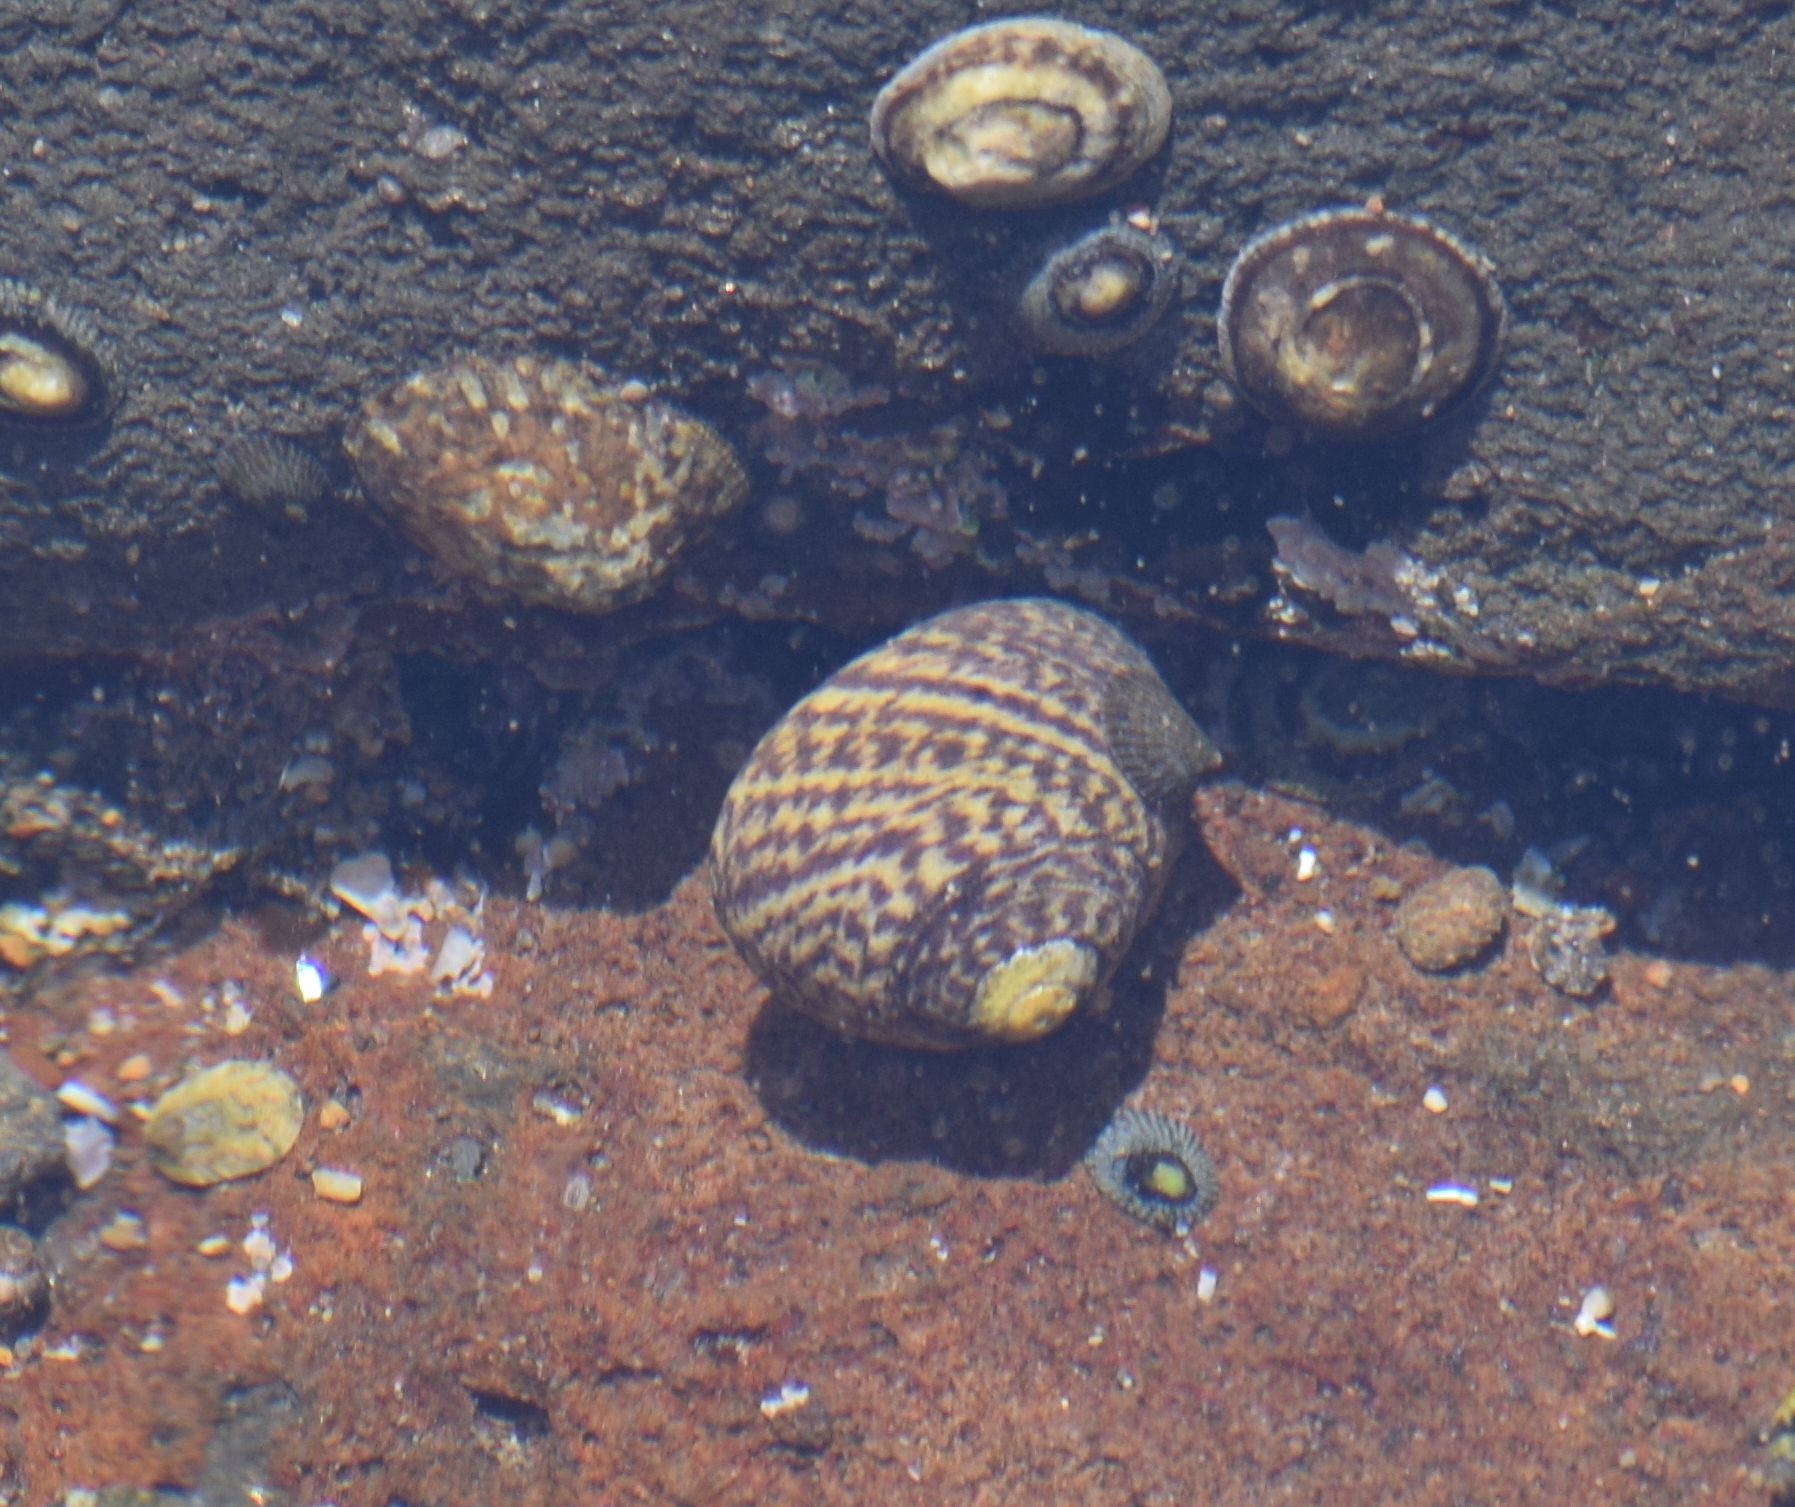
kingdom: Animalia
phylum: Mollusca
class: Gastropoda
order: Trochida
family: Tegulidae
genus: Tegula
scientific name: Tegula gallina
